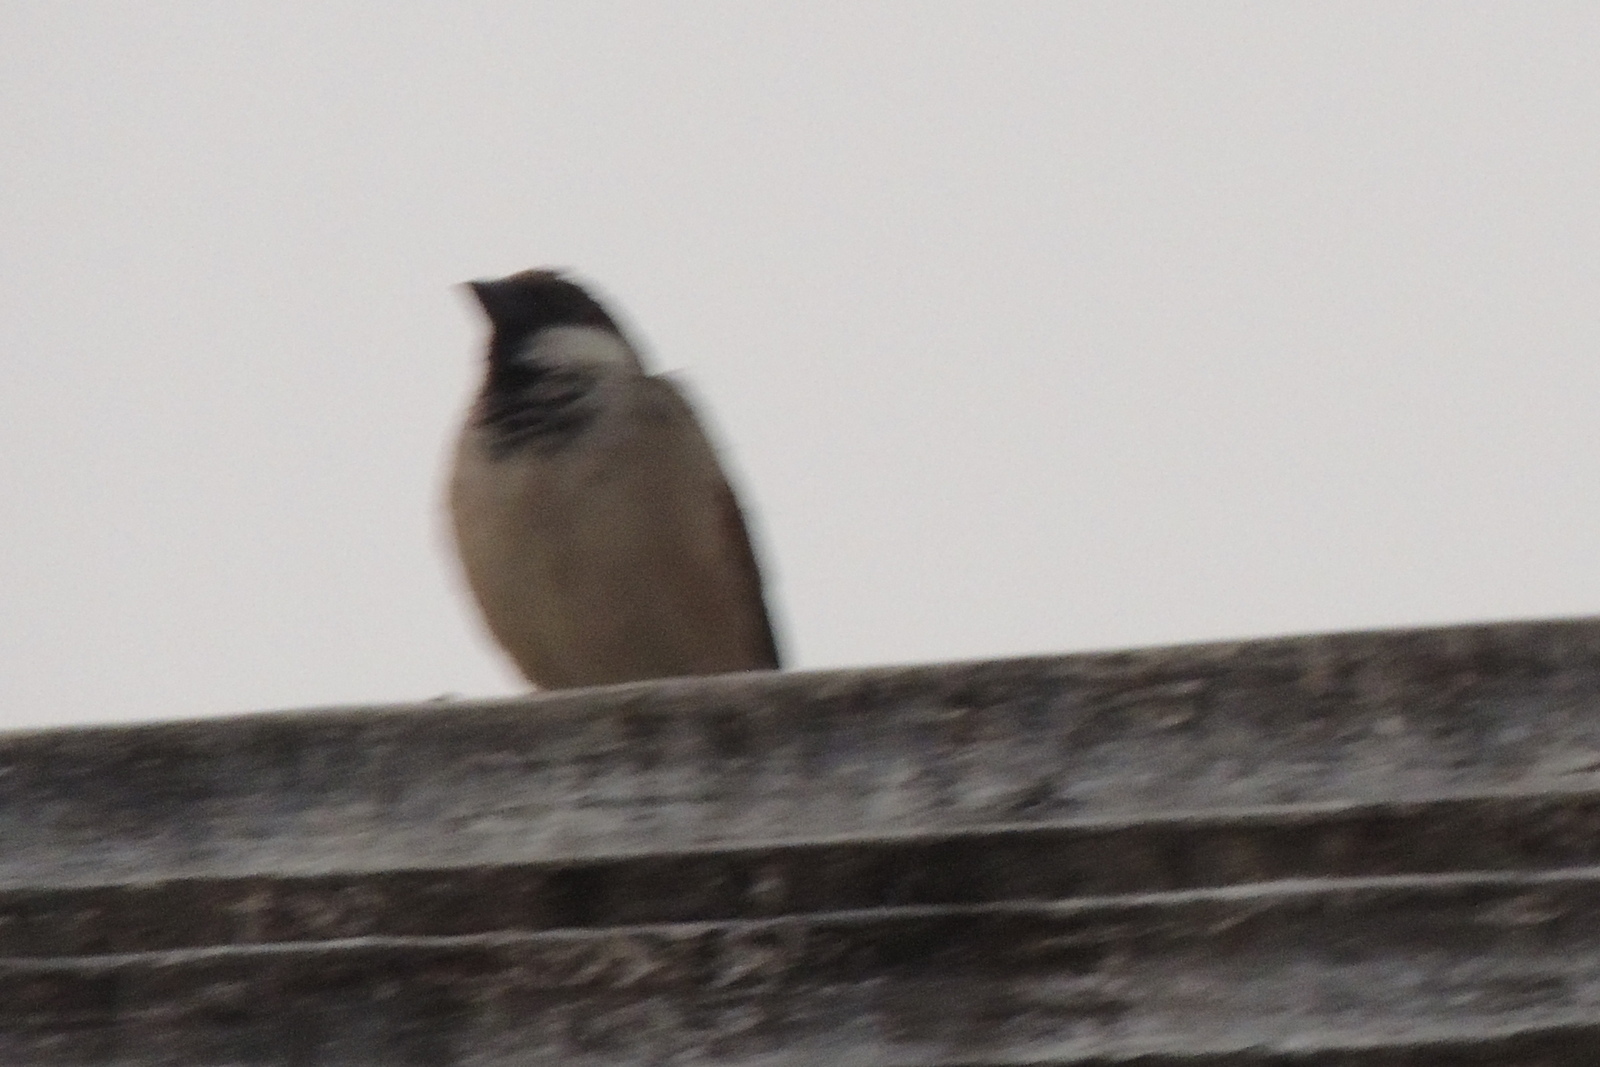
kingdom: Animalia
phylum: Chordata
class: Aves
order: Passeriformes
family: Passeridae
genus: Passer
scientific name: Passer domesticus
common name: House sparrow
